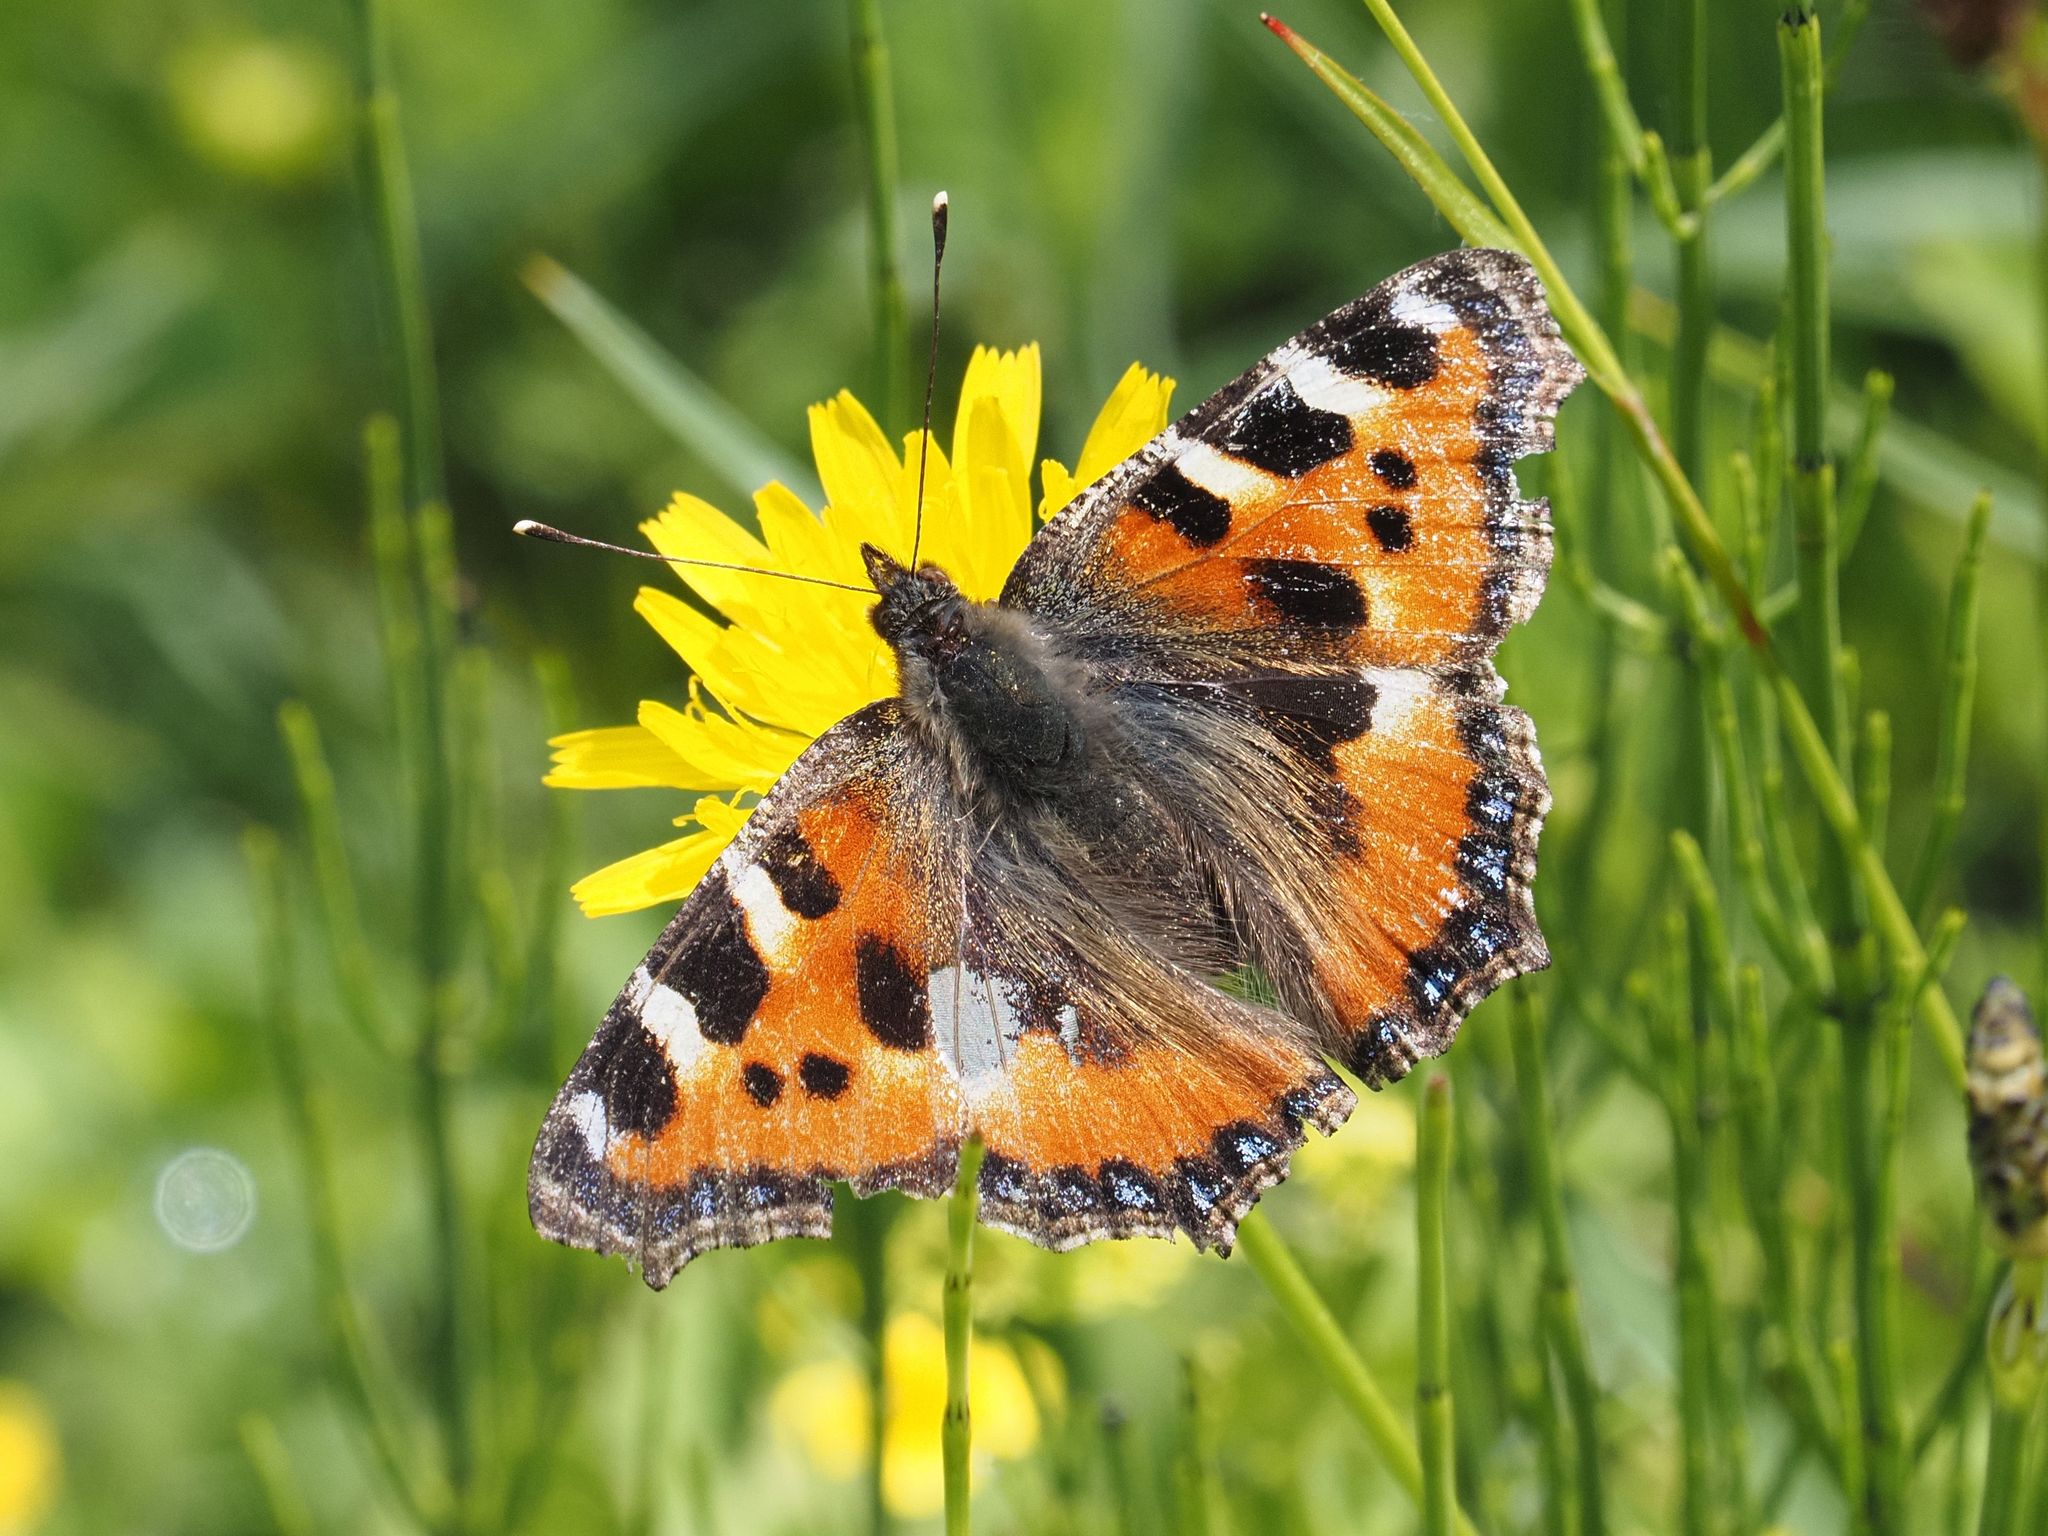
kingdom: Animalia
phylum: Arthropoda
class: Insecta
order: Lepidoptera
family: Nymphalidae
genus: Aglais
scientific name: Aglais urticae
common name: Small tortoiseshell
